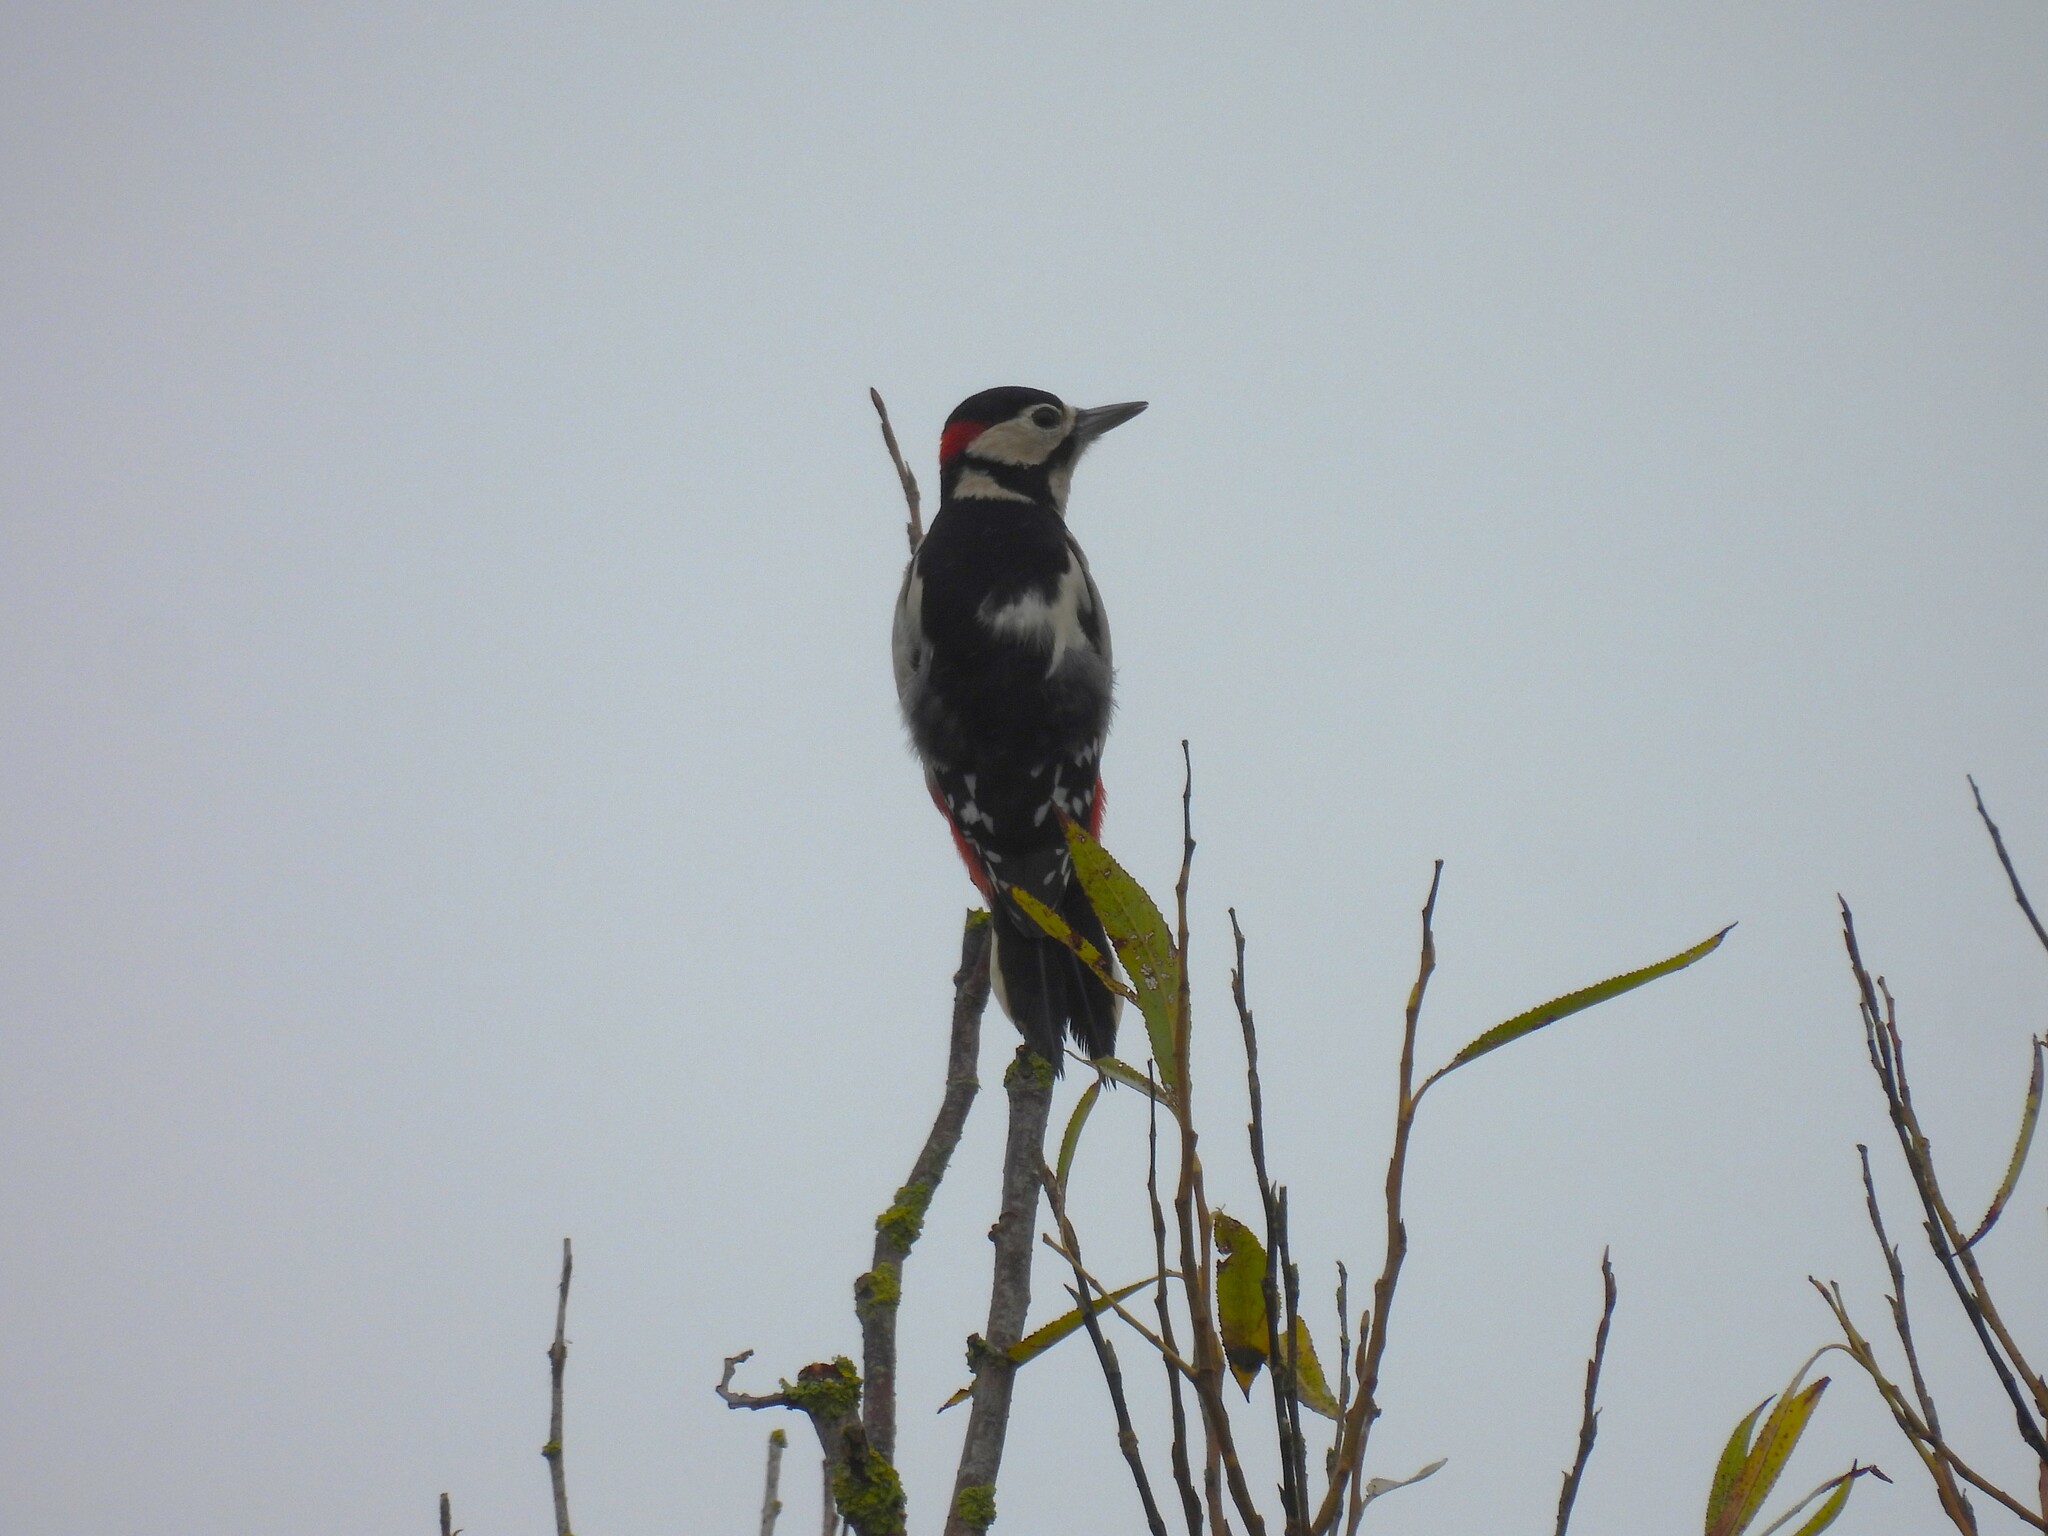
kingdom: Animalia
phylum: Chordata
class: Aves
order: Piciformes
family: Picidae
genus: Dendrocopos
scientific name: Dendrocopos major
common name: Great spotted woodpecker
